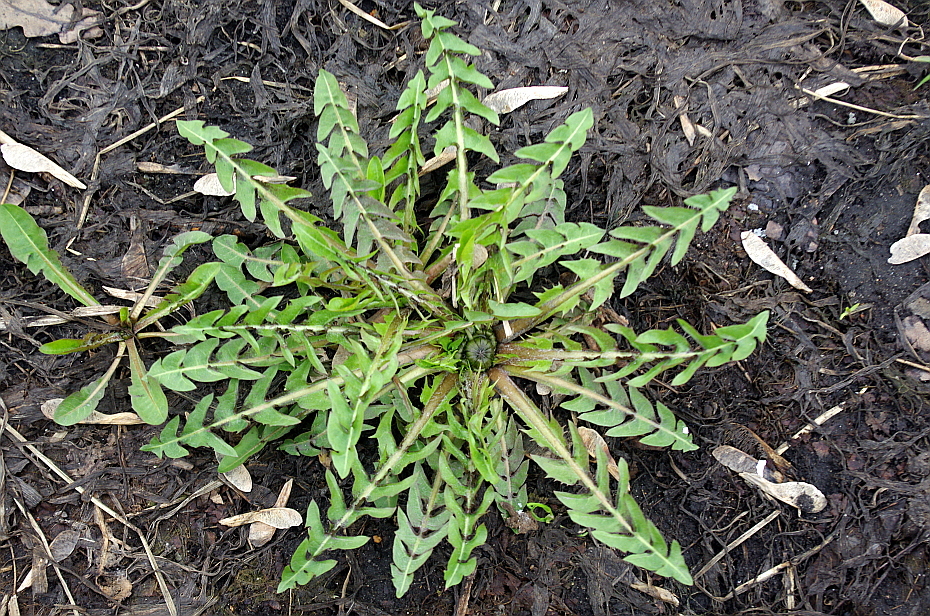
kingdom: Plantae
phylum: Tracheophyta
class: Magnoliopsida
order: Asterales
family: Asteraceae
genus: Taraxacum
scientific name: Taraxacum officinale
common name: Common dandelion
